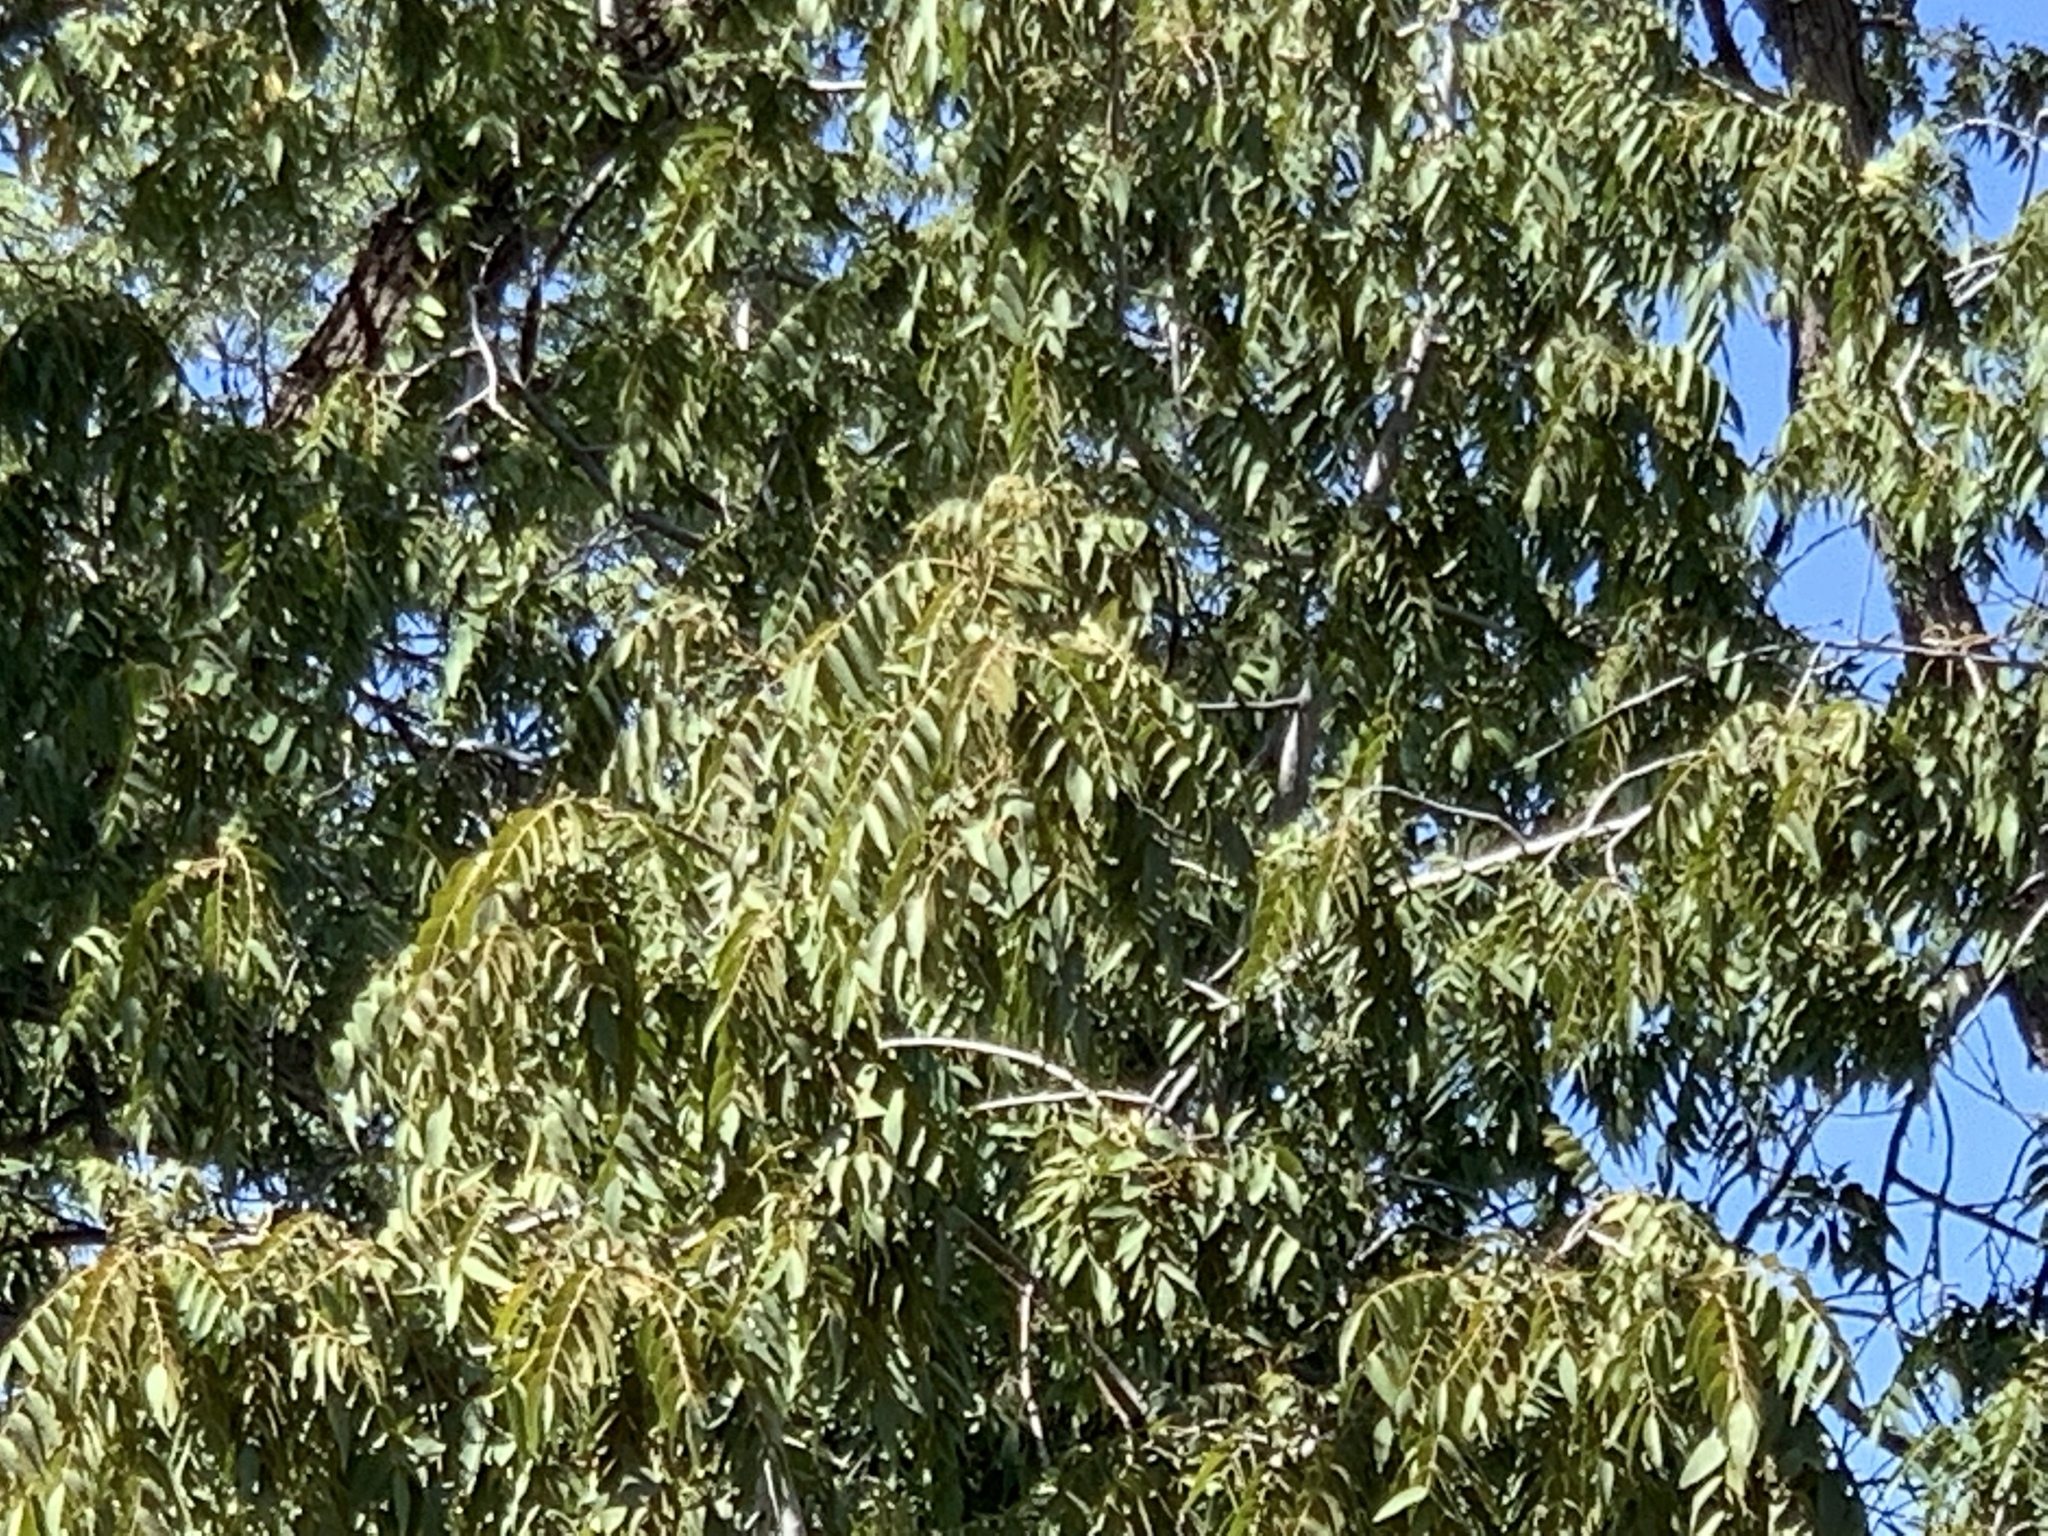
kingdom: Plantae
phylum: Tracheophyta
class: Magnoliopsida
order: Fagales
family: Juglandaceae
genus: Juglans
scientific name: Juglans major
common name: Arizona walnut
